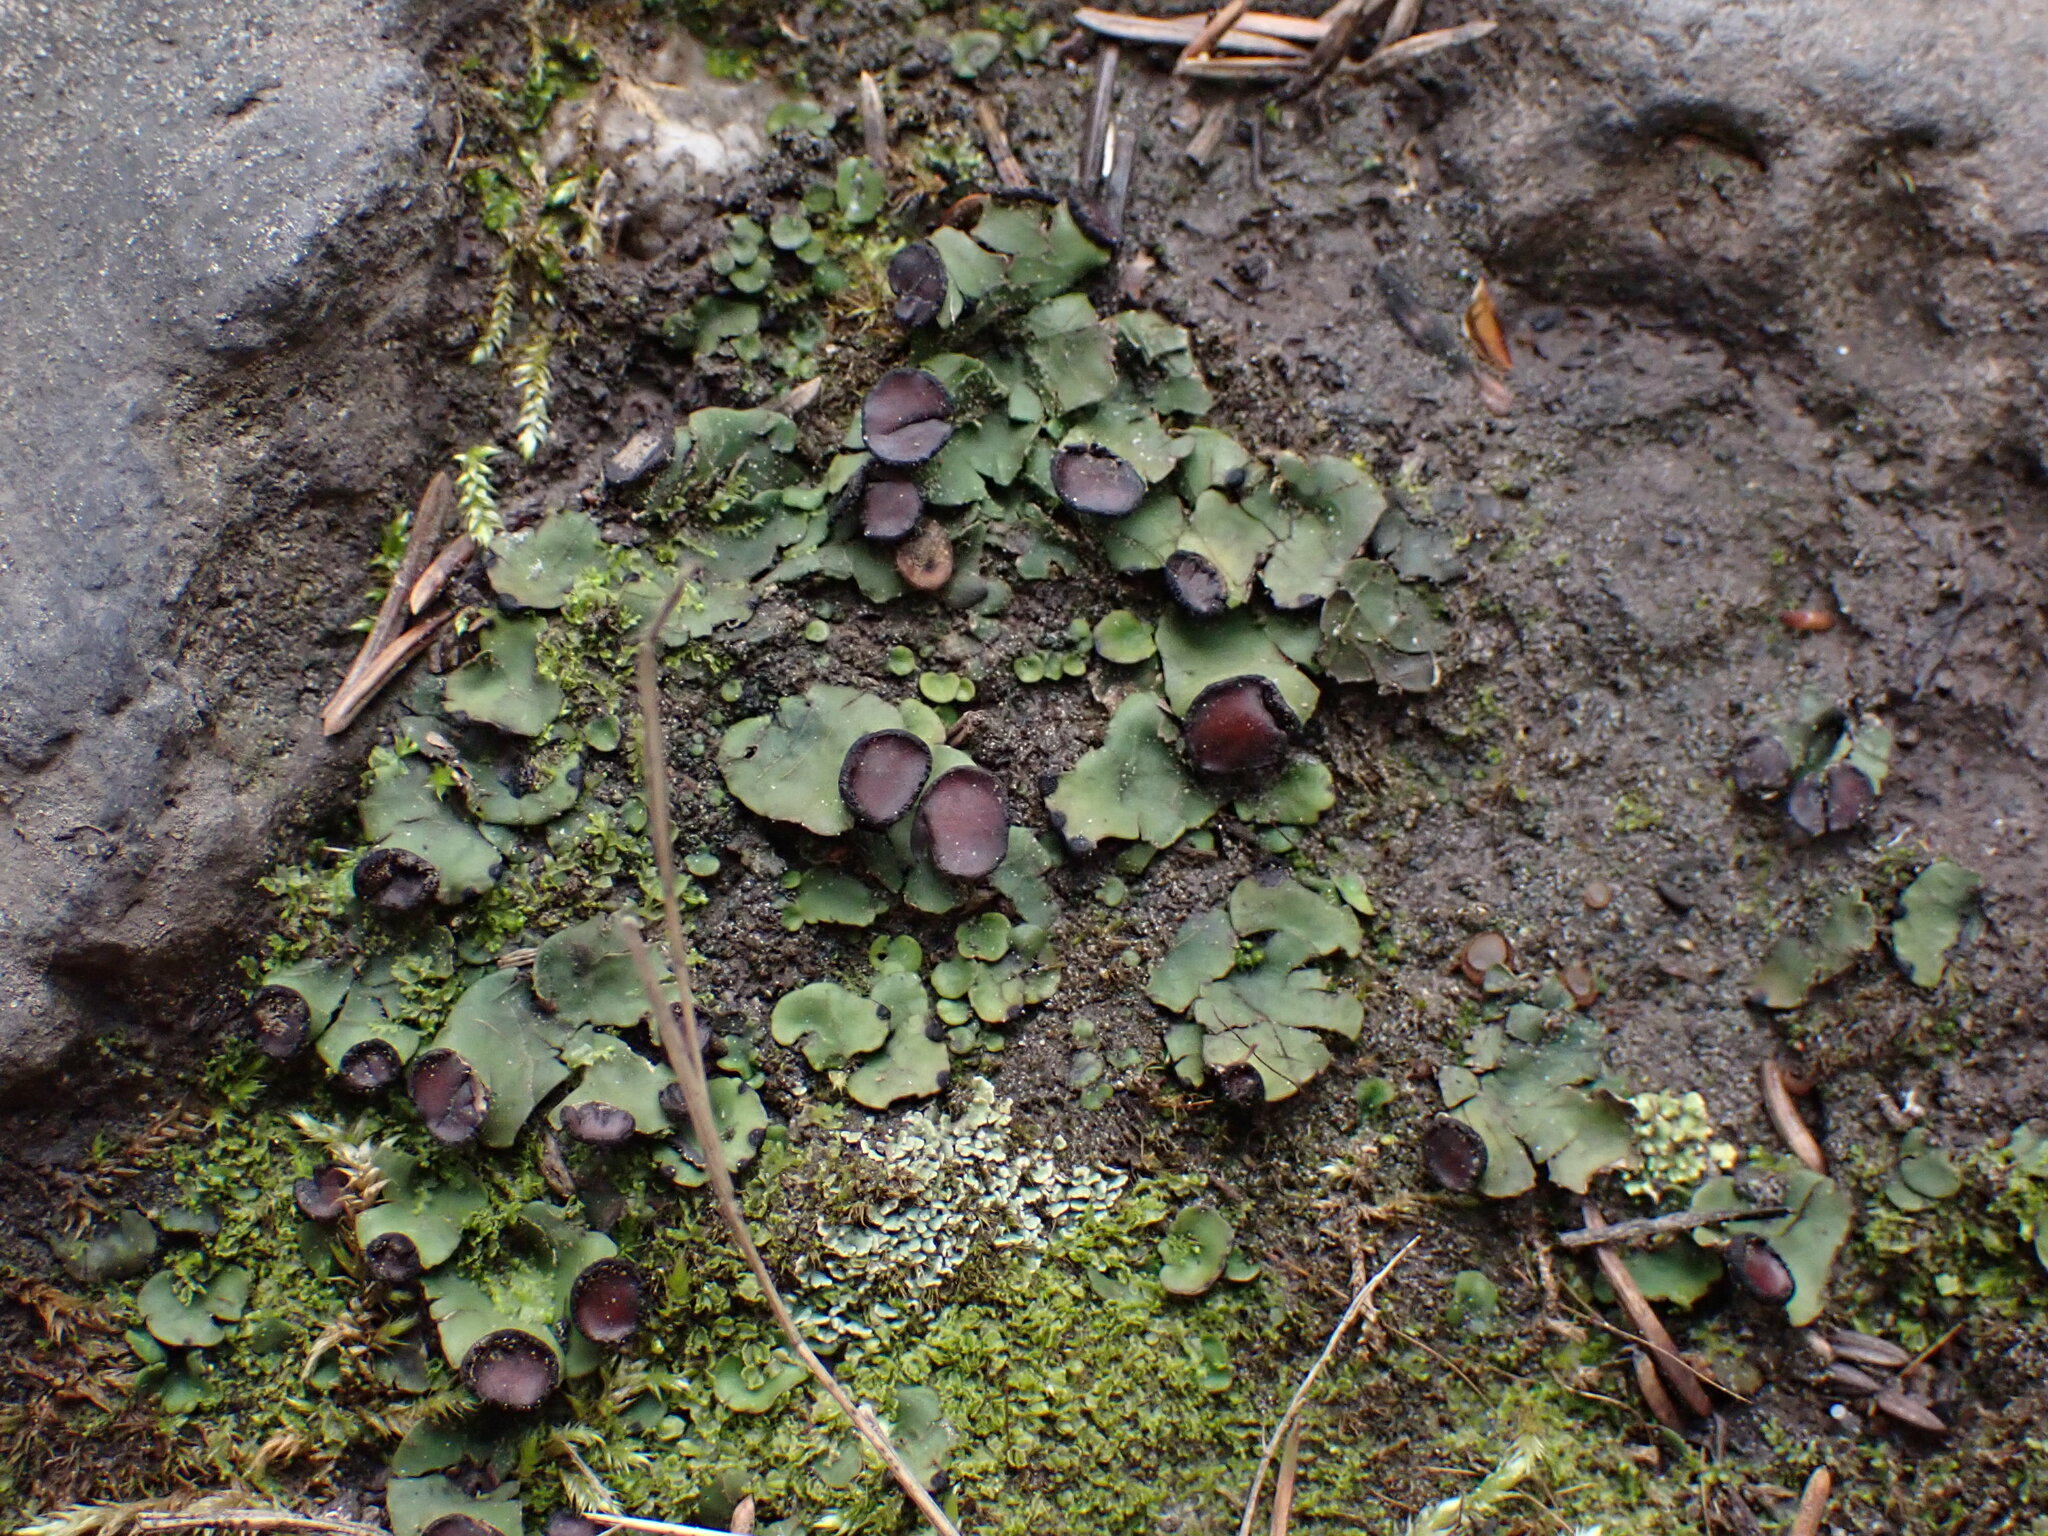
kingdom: Fungi
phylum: Ascomycota
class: Lecanoromycetes
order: Peltigerales
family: Peltigeraceae
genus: Peltigera
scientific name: Peltigera venosa
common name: Pixie gowns lichen
